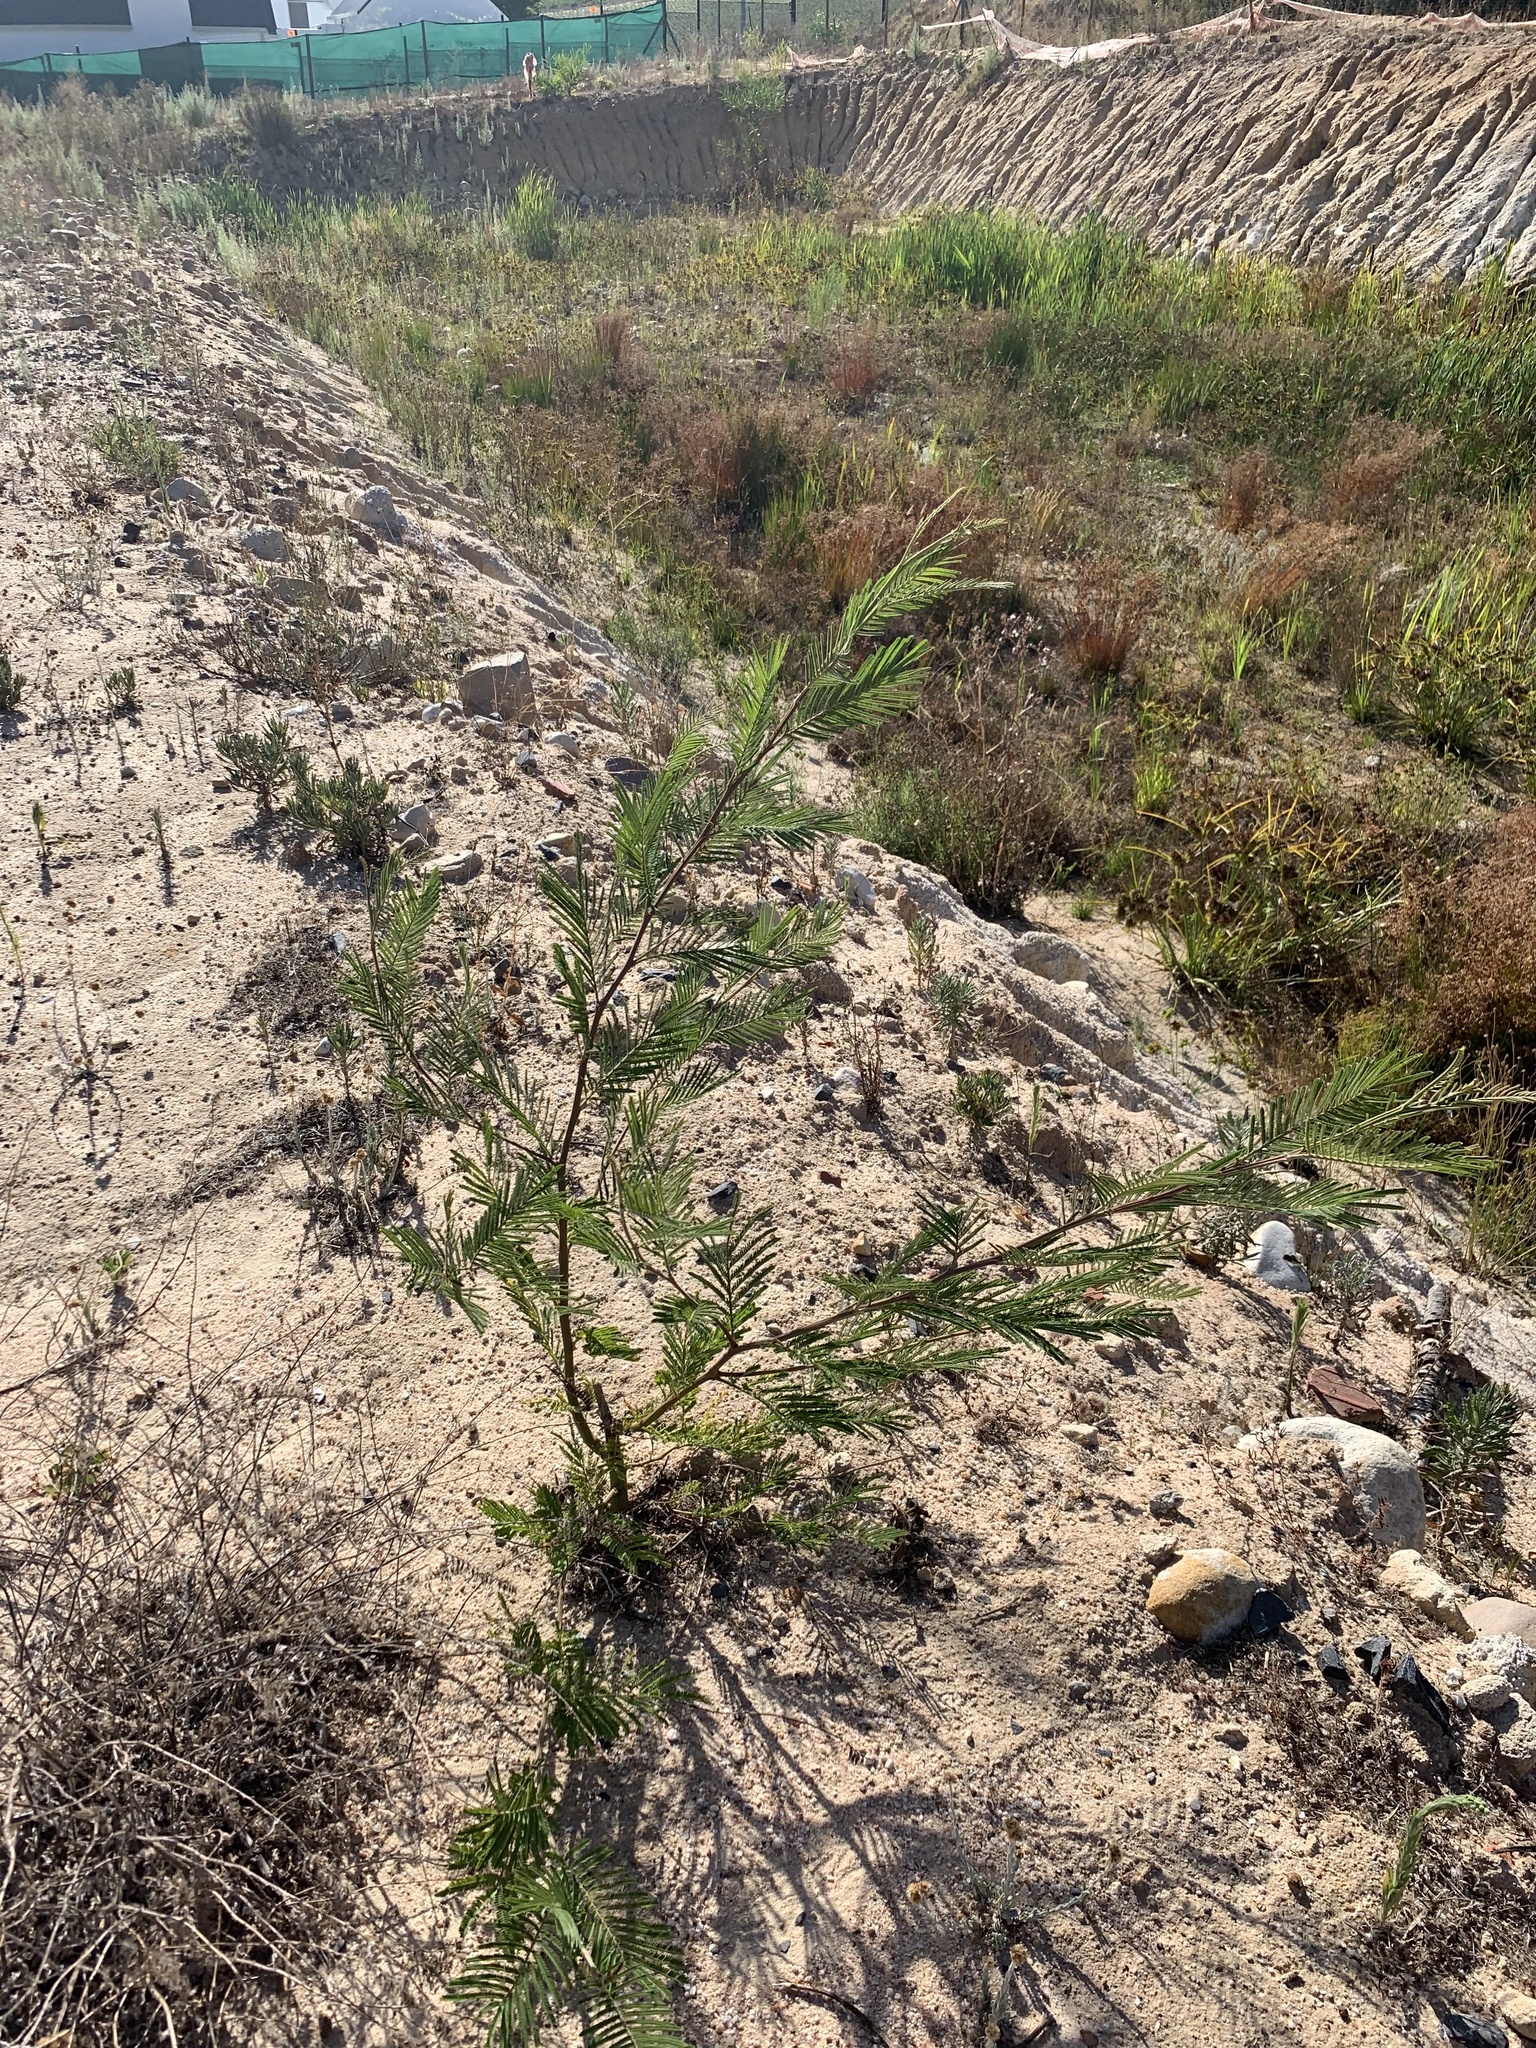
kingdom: Plantae
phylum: Tracheophyta
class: Magnoliopsida
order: Fabales
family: Fabaceae
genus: Acacia
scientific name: Acacia mearnsii
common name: Black wattle
